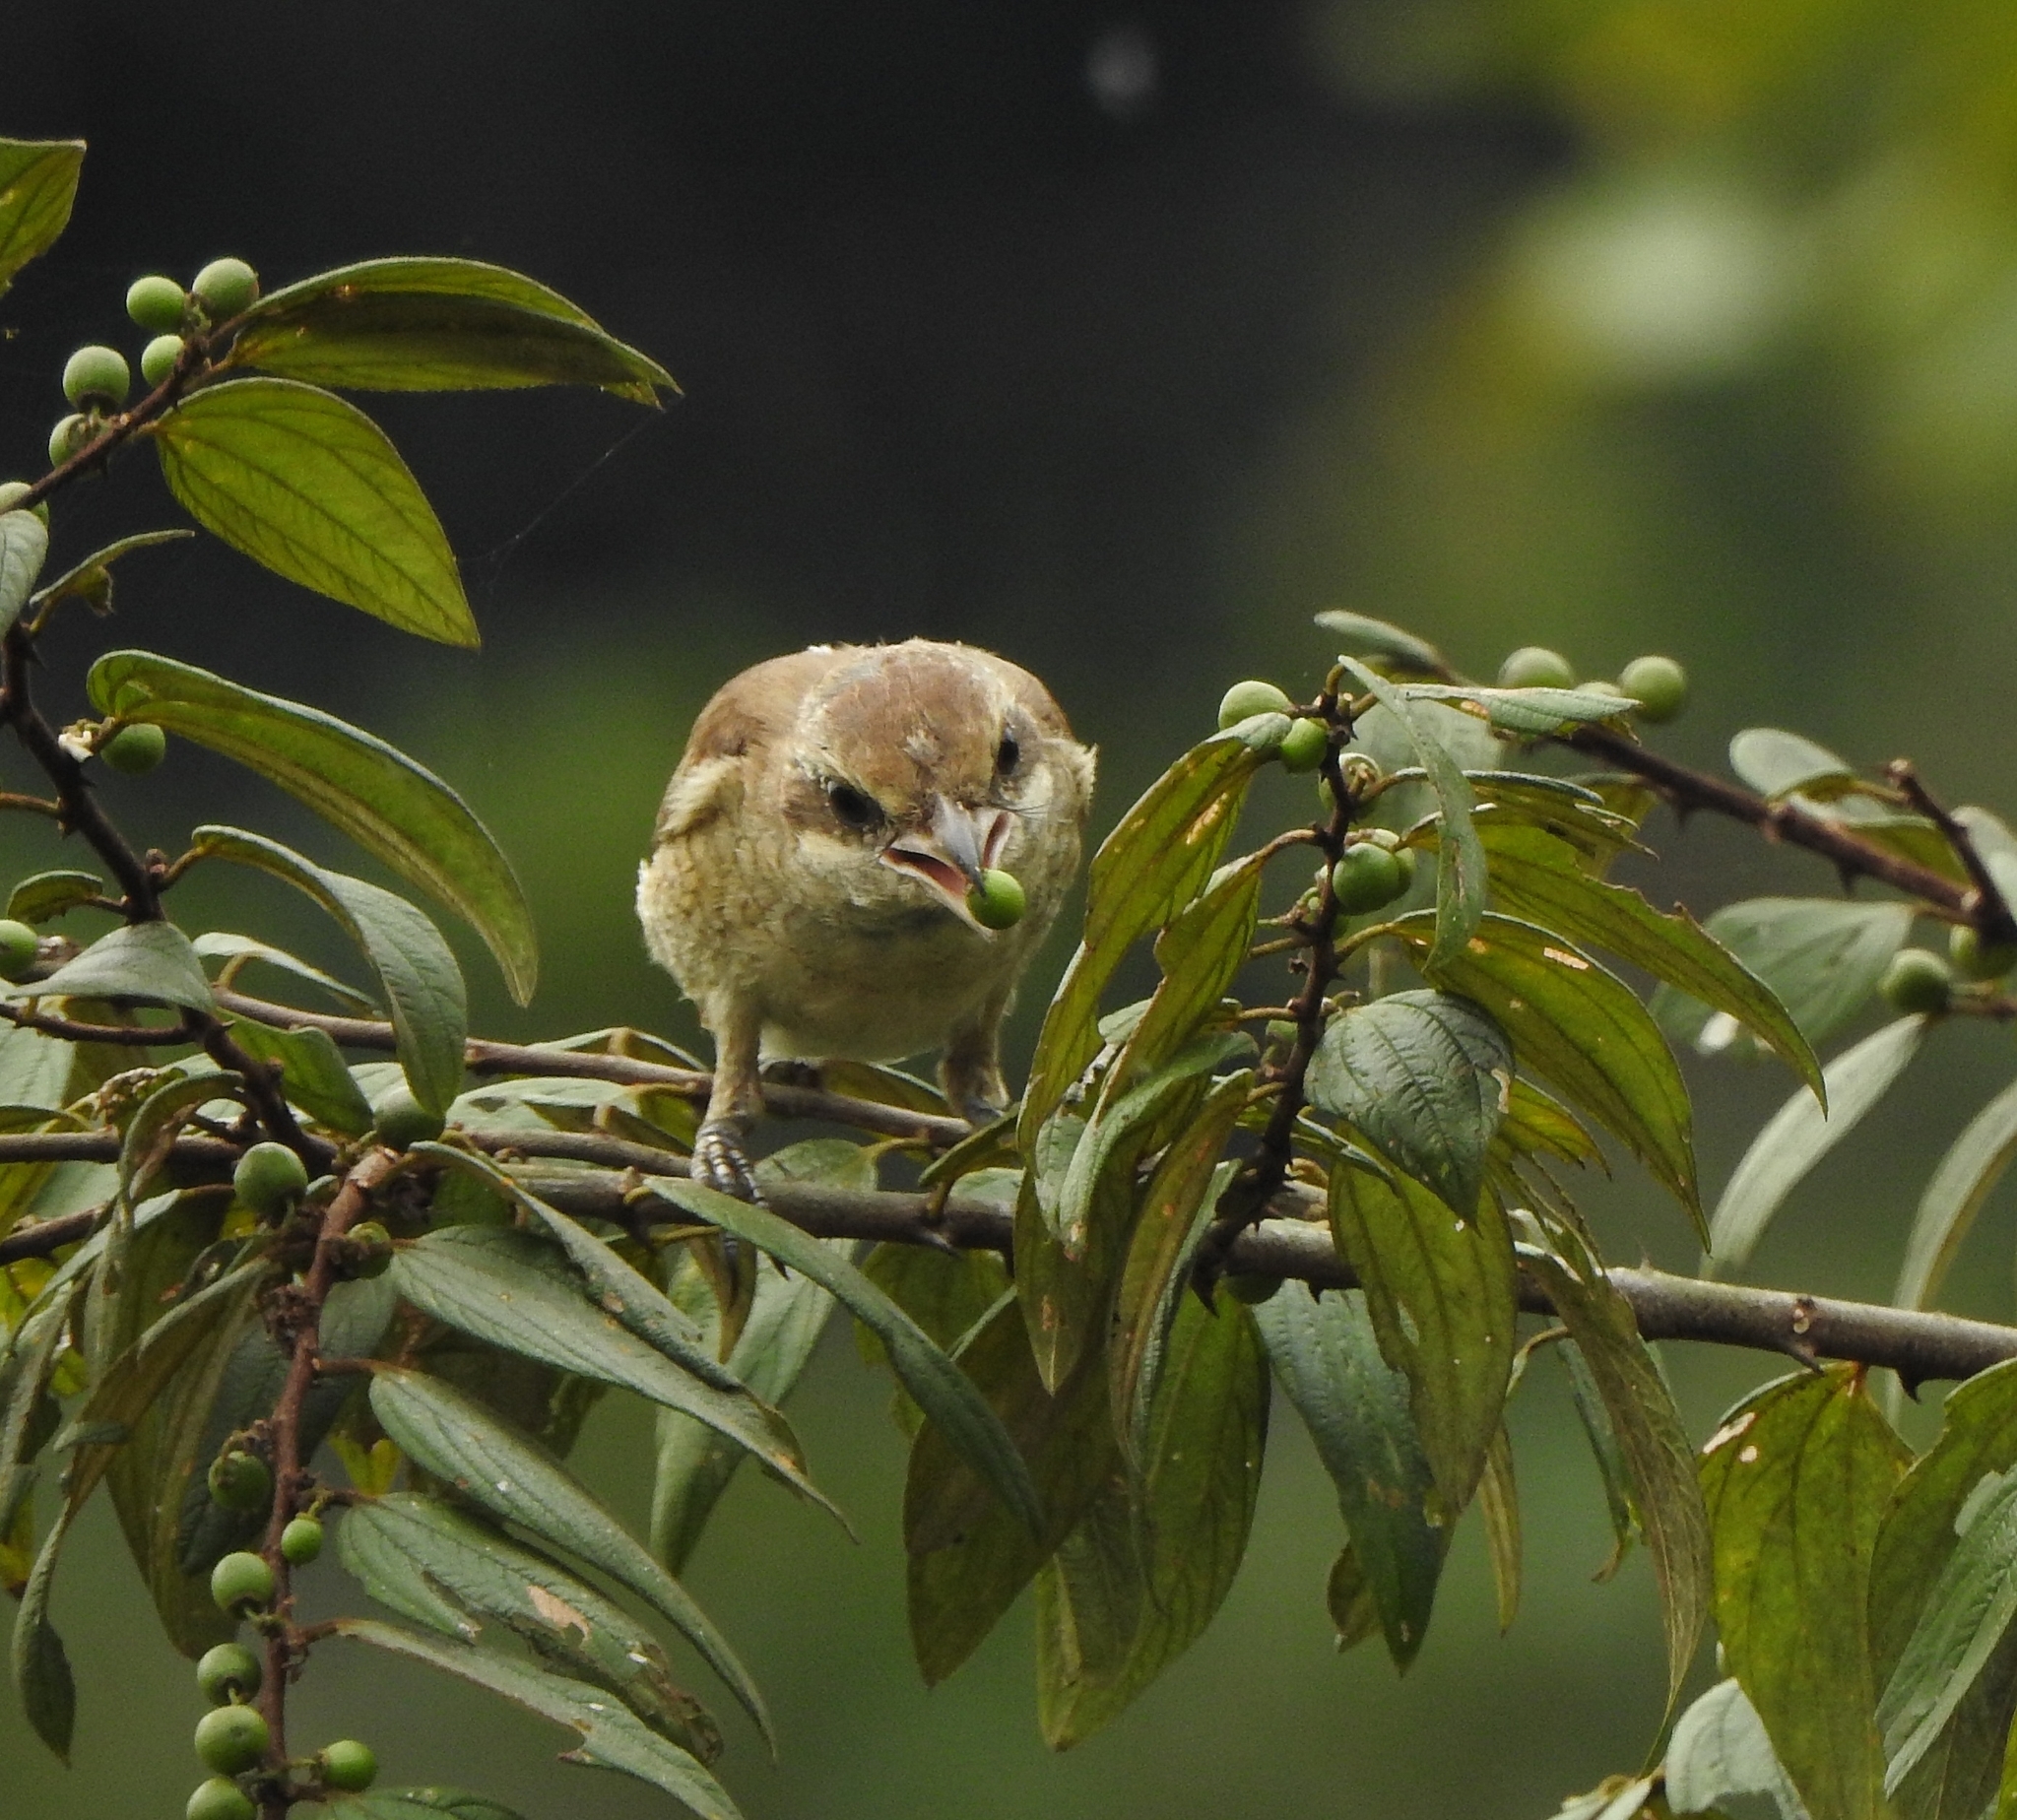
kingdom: Animalia
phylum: Chordata
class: Aves
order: Passeriformes
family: Laniidae
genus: Lanius
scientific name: Lanius cristatus
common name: Brown shrike
